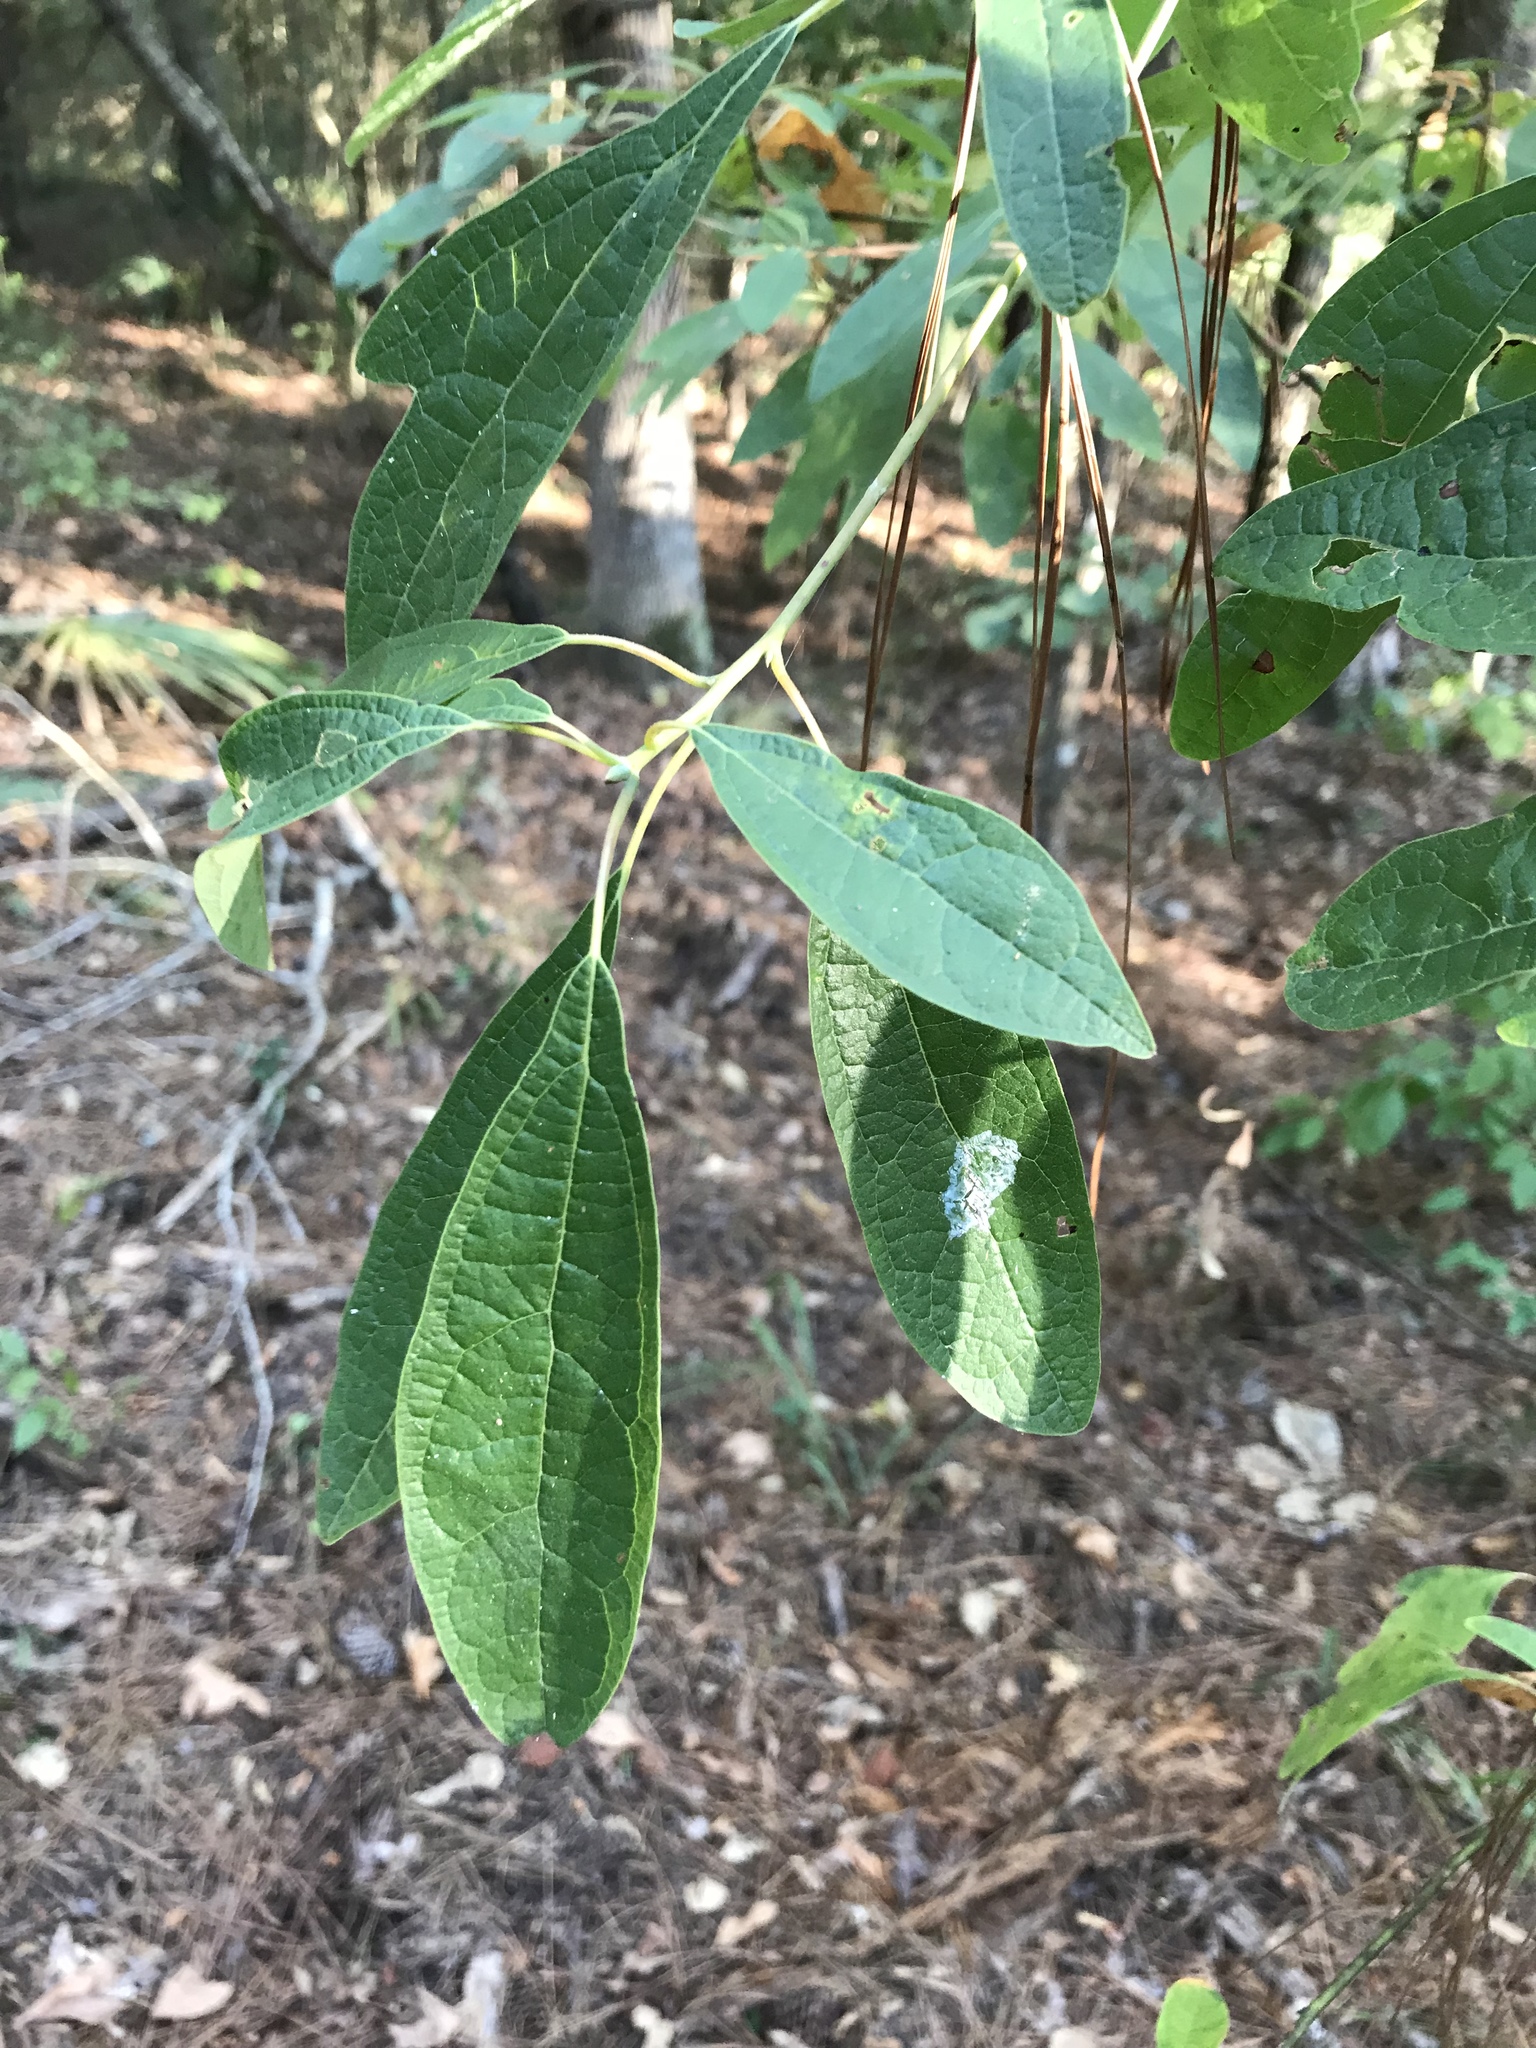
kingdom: Plantae
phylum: Tracheophyta
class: Magnoliopsida
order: Laurales
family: Lauraceae
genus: Sassafras
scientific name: Sassafras albidum
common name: Sassafras
